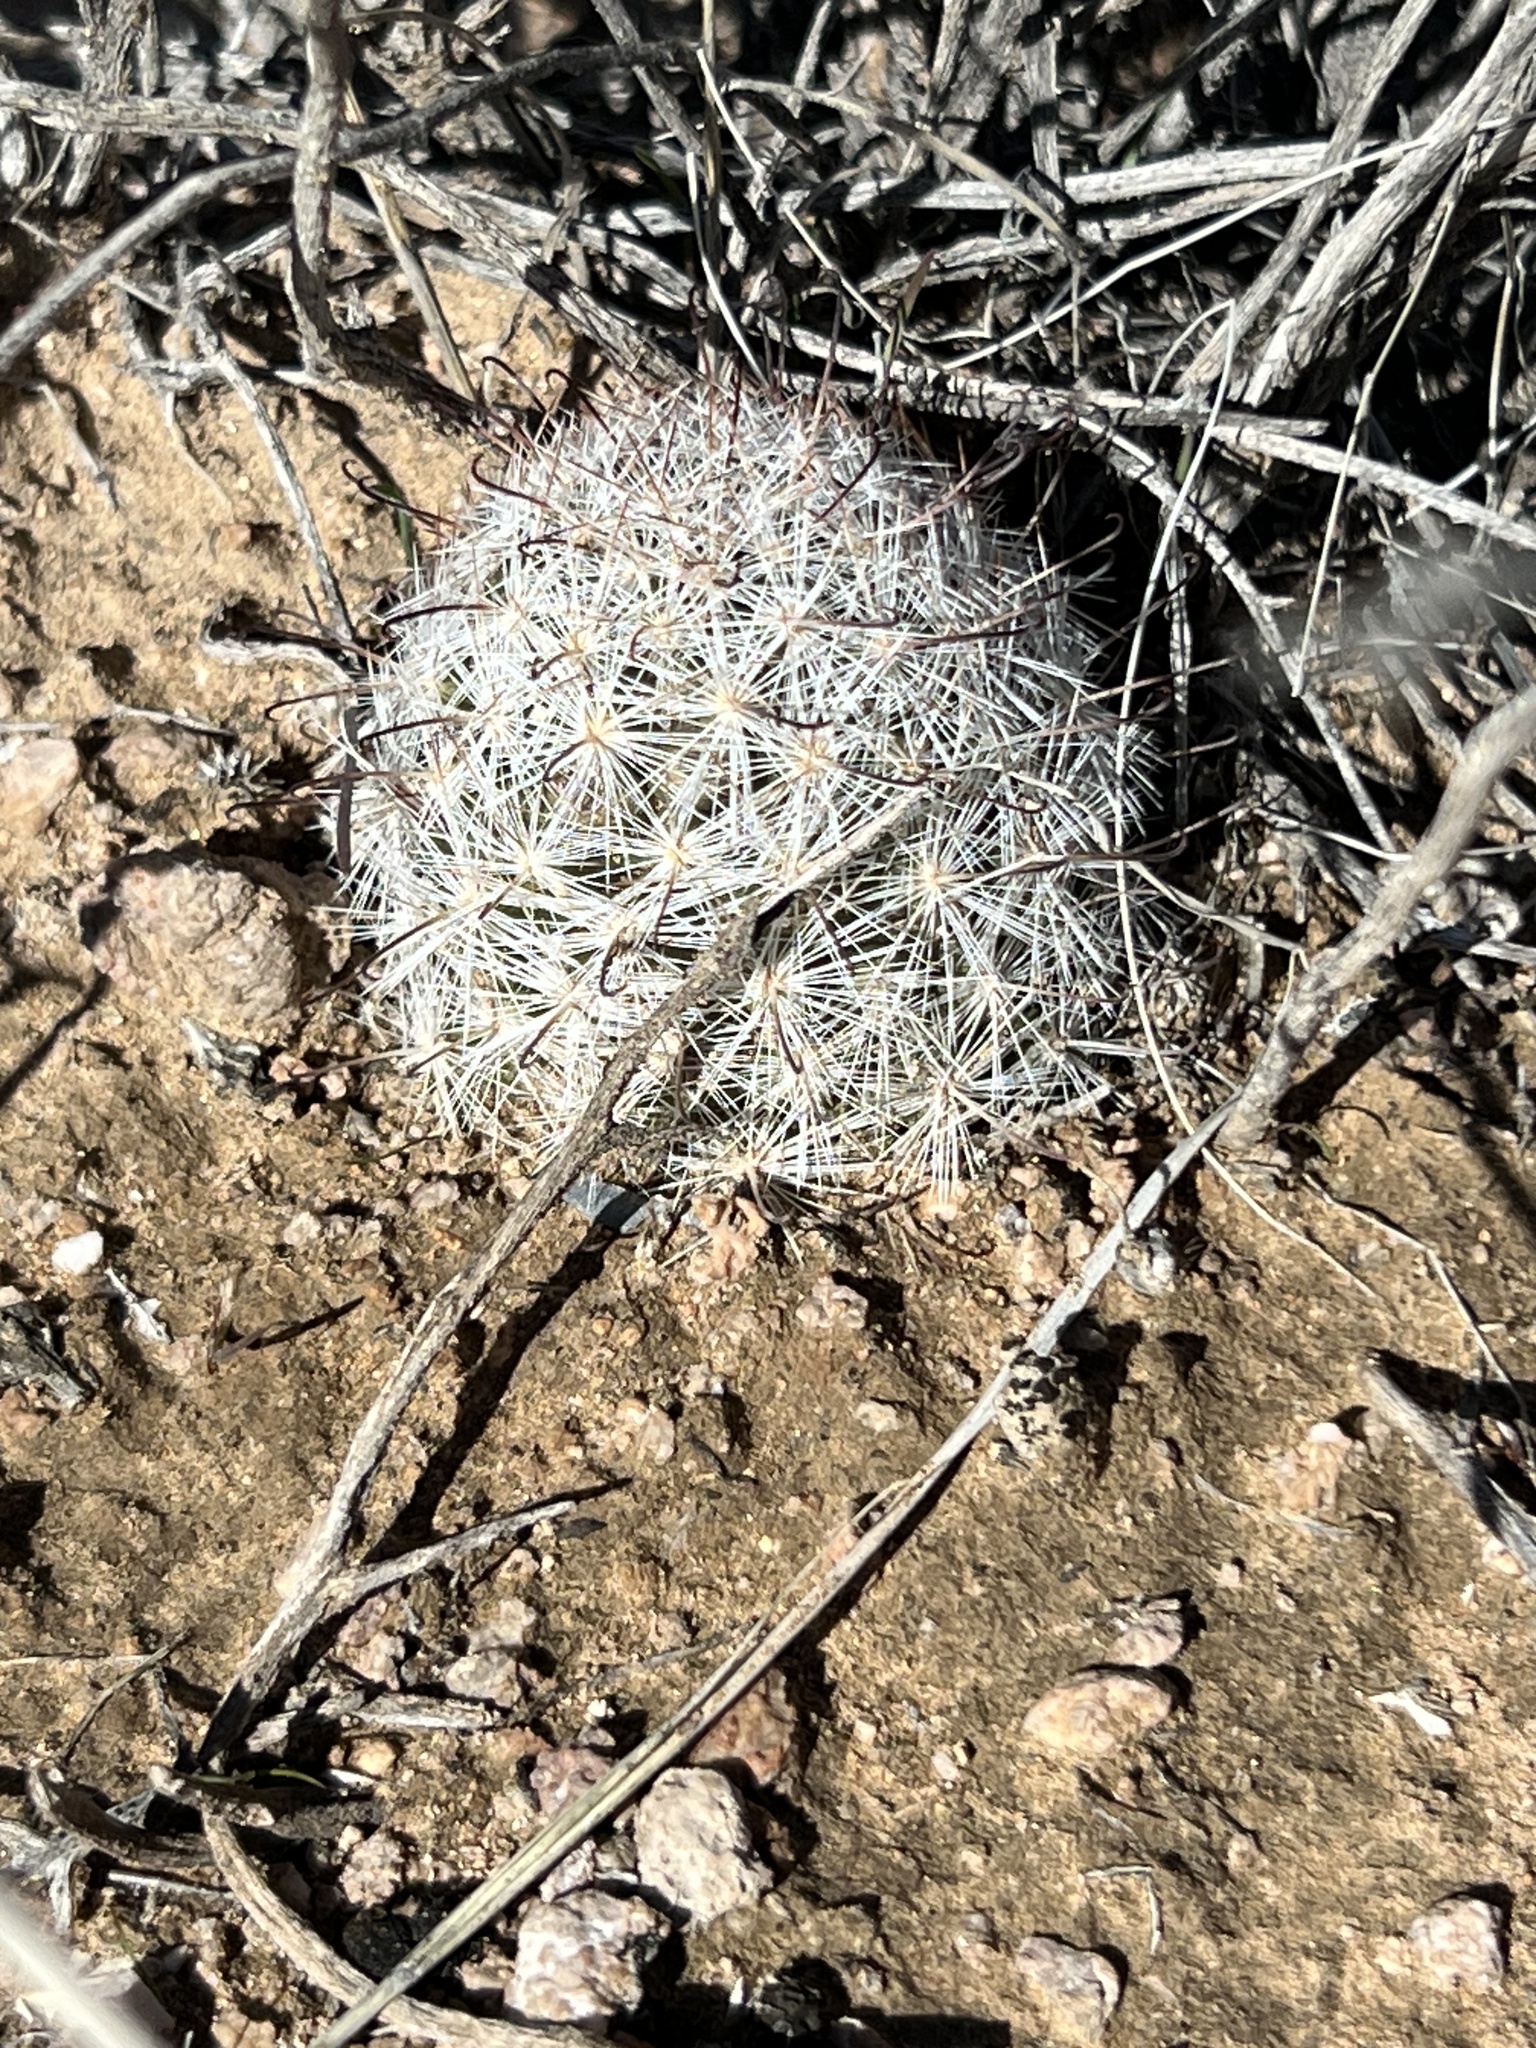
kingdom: Plantae
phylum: Tracheophyta
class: Magnoliopsida
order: Caryophyllales
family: Cactaceae
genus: Cochemiea
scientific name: Cochemiea tetrancistra
